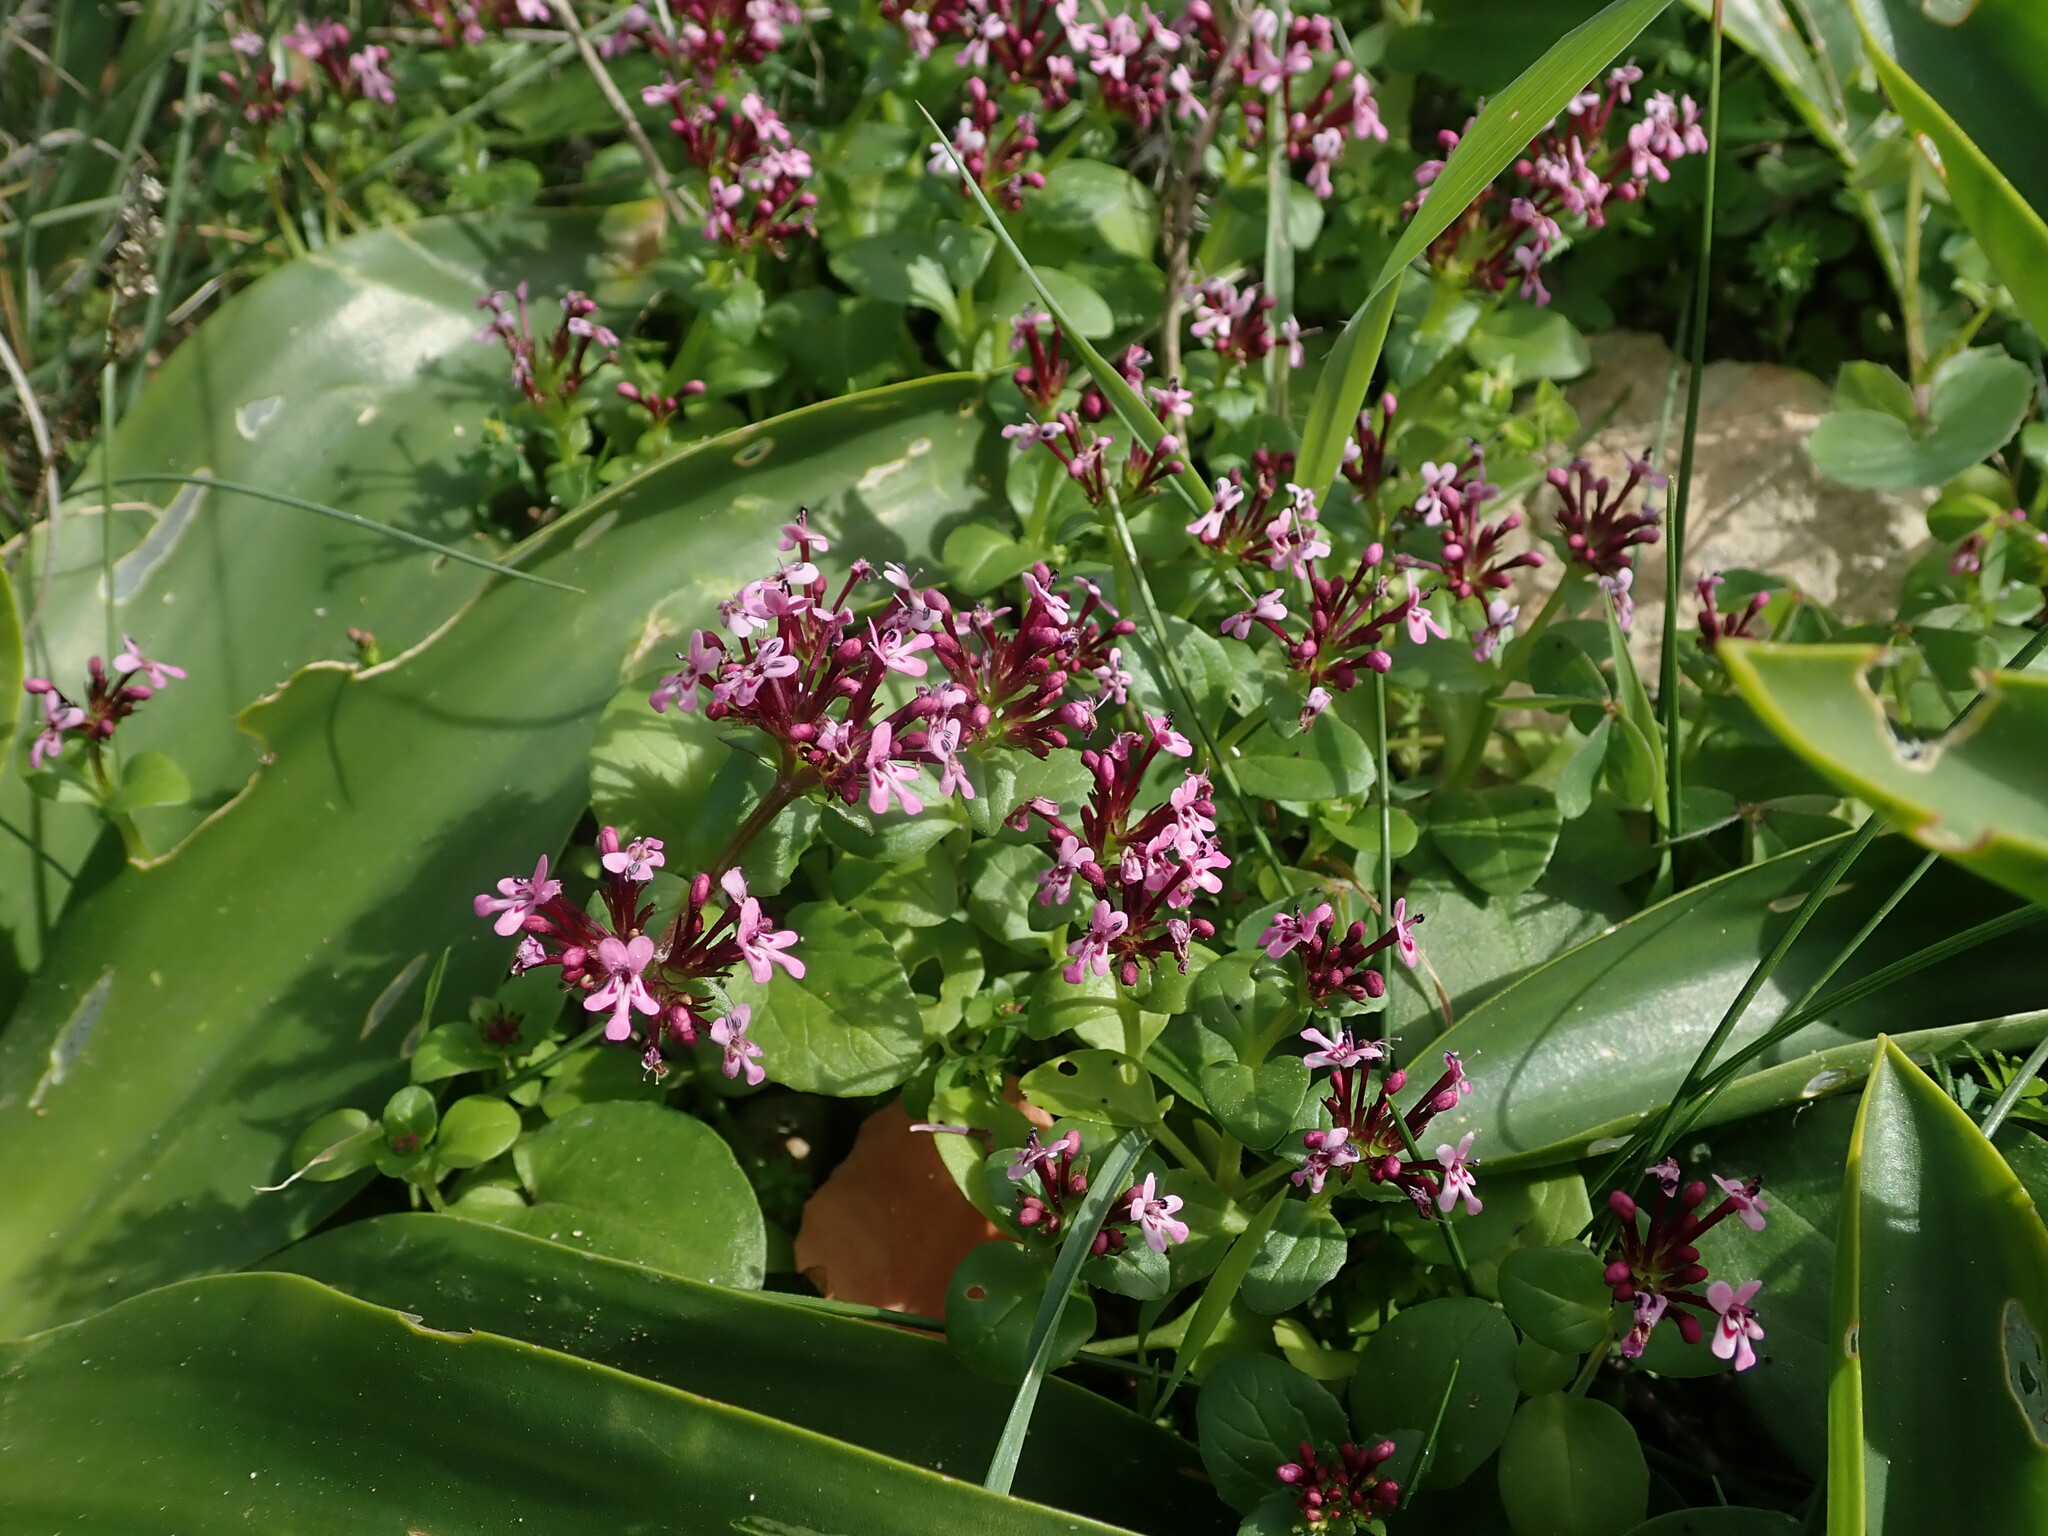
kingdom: Plantae
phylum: Tracheophyta
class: Magnoliopsida
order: Dipsacales
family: Caprifoliaceae
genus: Fedia
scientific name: Fedia graciliflora
